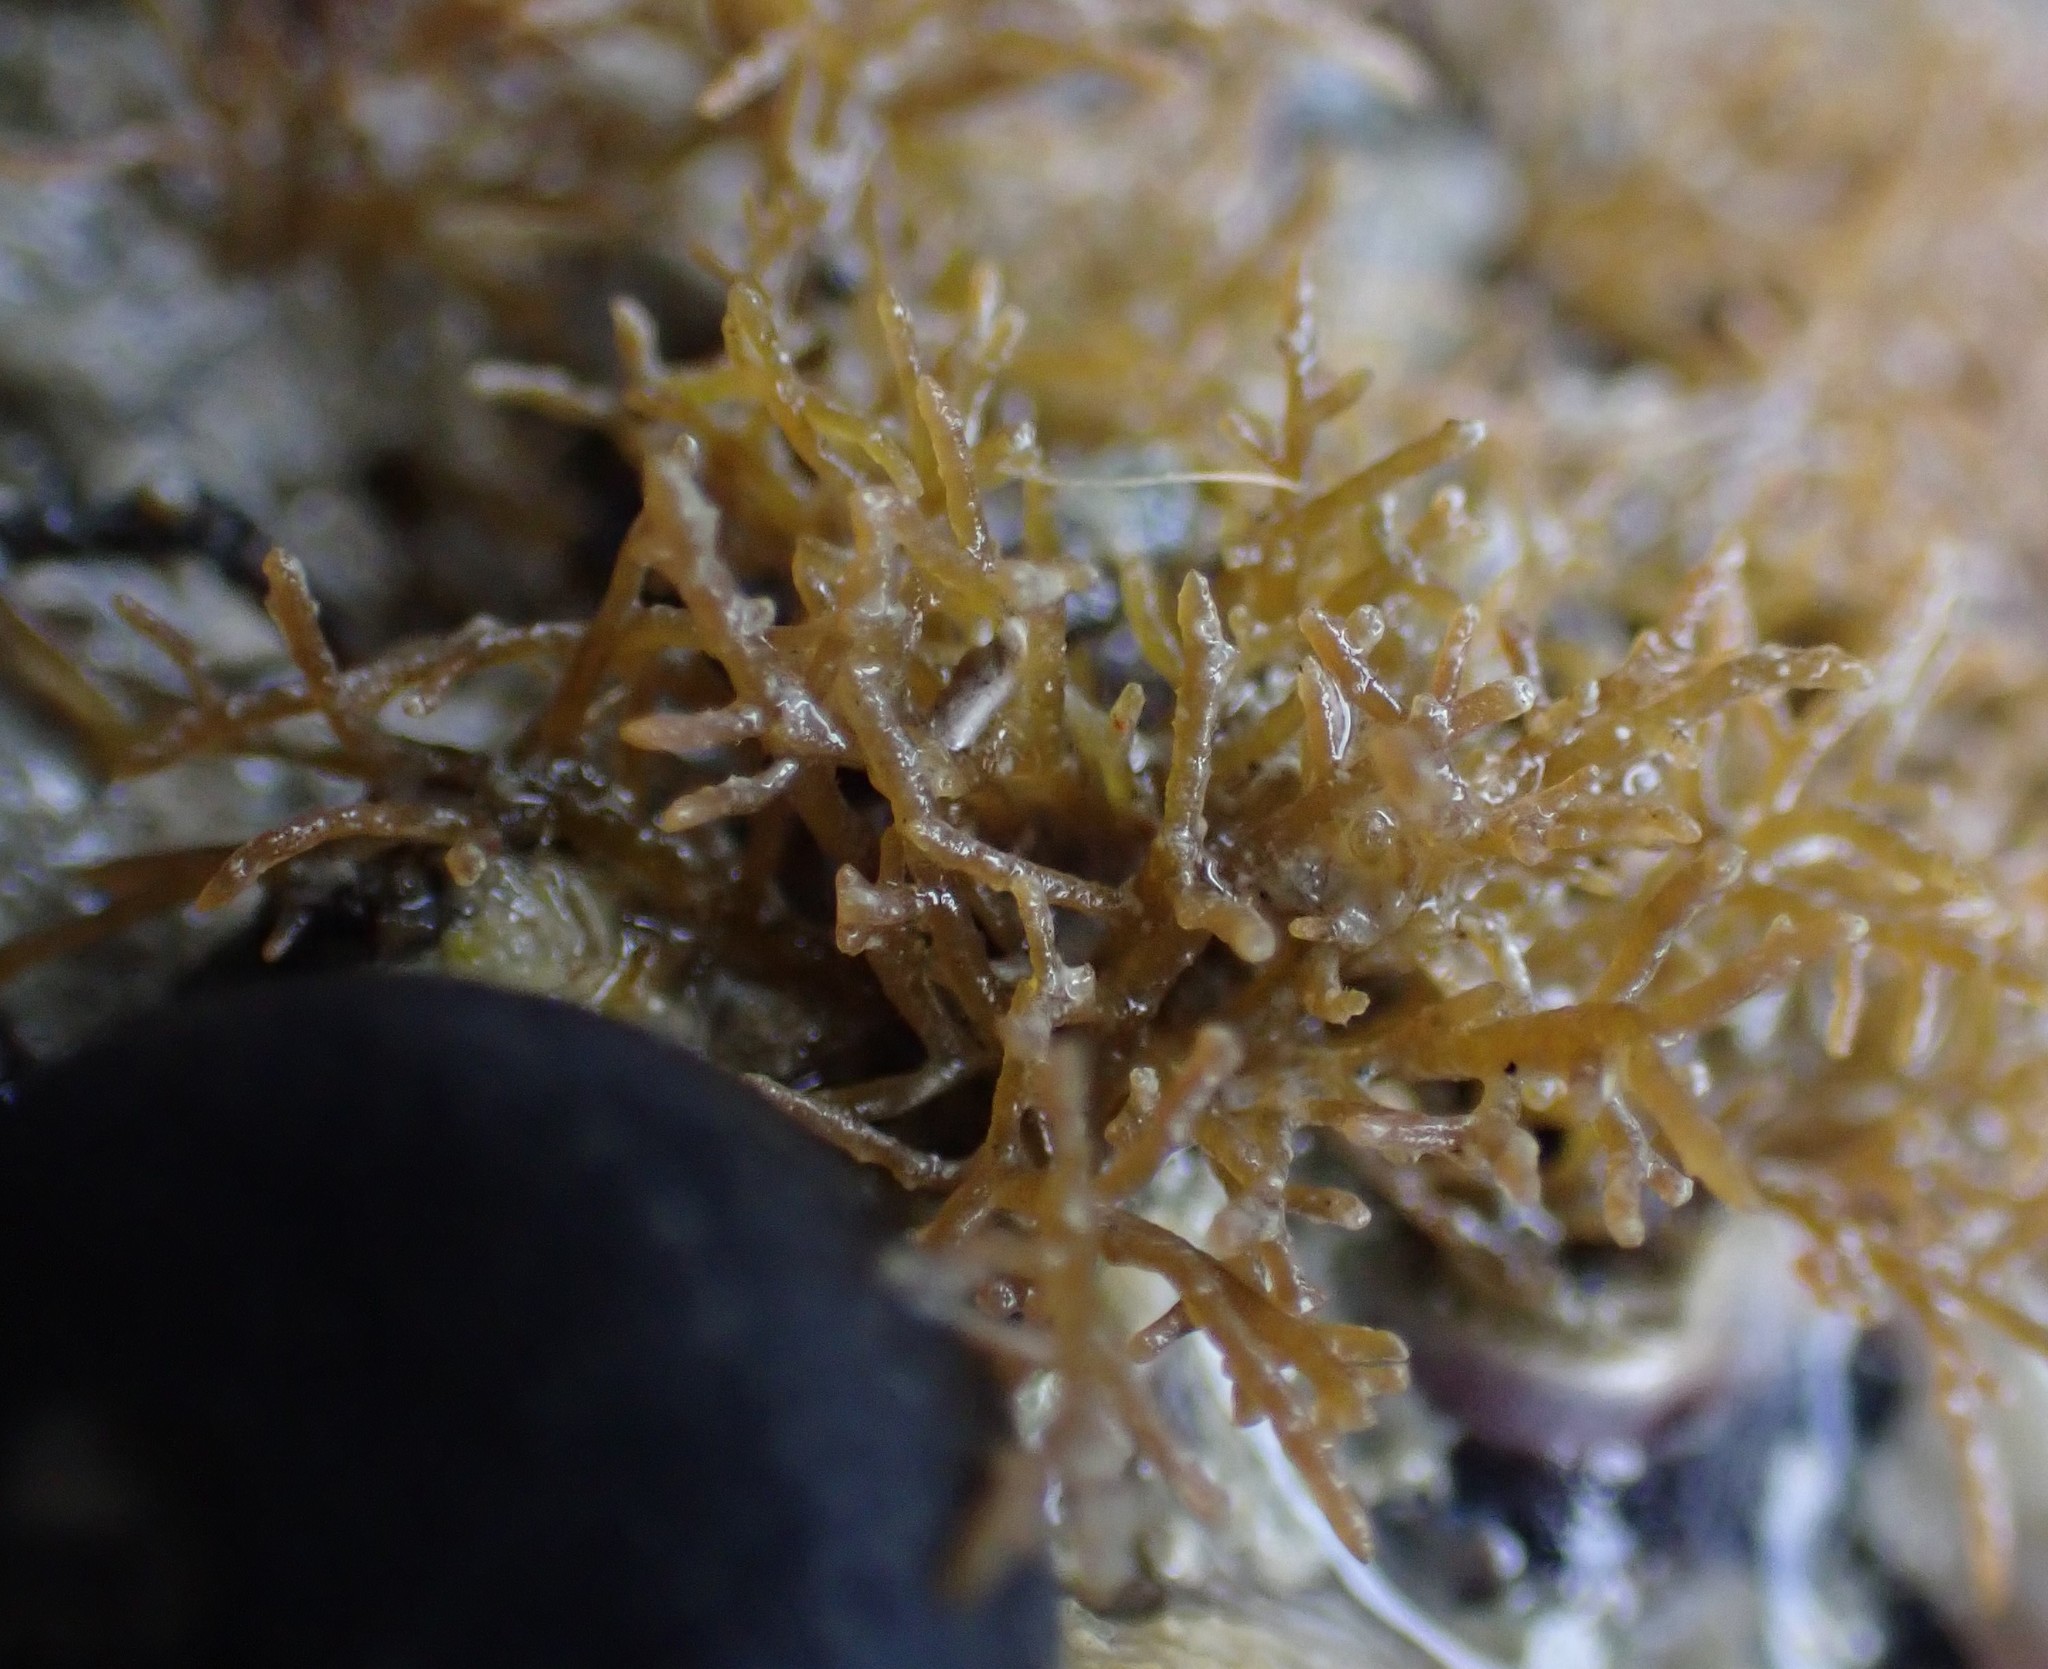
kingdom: Plantae
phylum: Rhodophyta
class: Florideophyceae
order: Gelidiales
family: Gelidiaceae
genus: Capreolia
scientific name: Capreolia implexa
